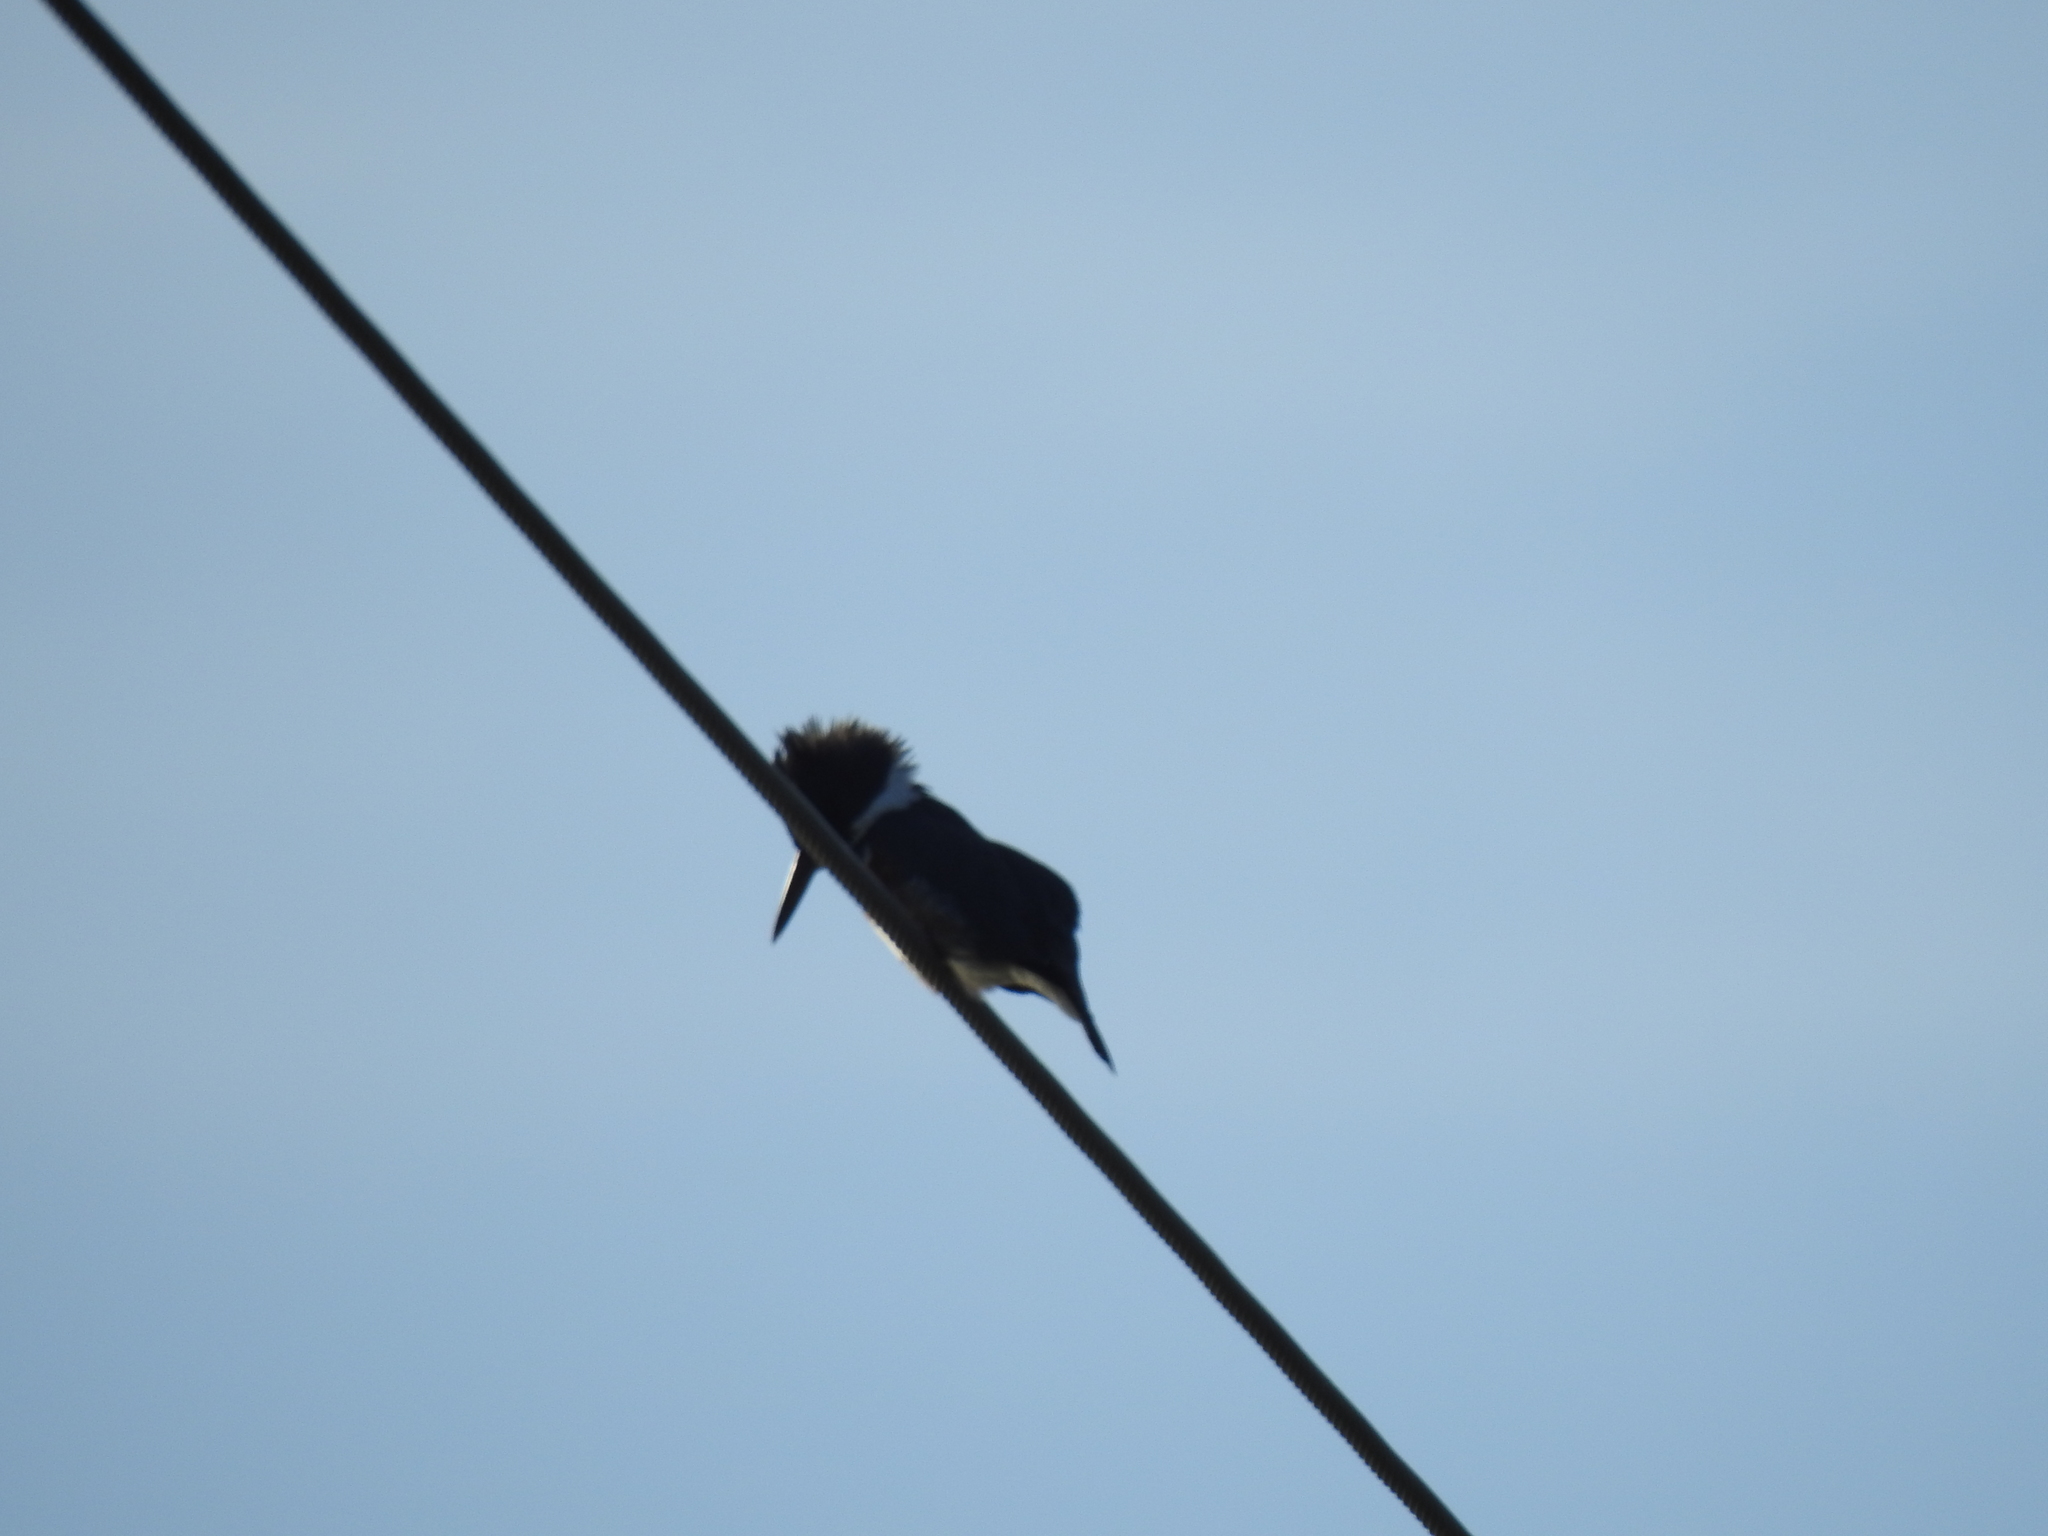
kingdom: Animalia
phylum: Chordata
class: Aves
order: Coraciiformes
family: Alcedinidae
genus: Megaceryle
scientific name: Megaceryle alcyon
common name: Belted kingfisher
